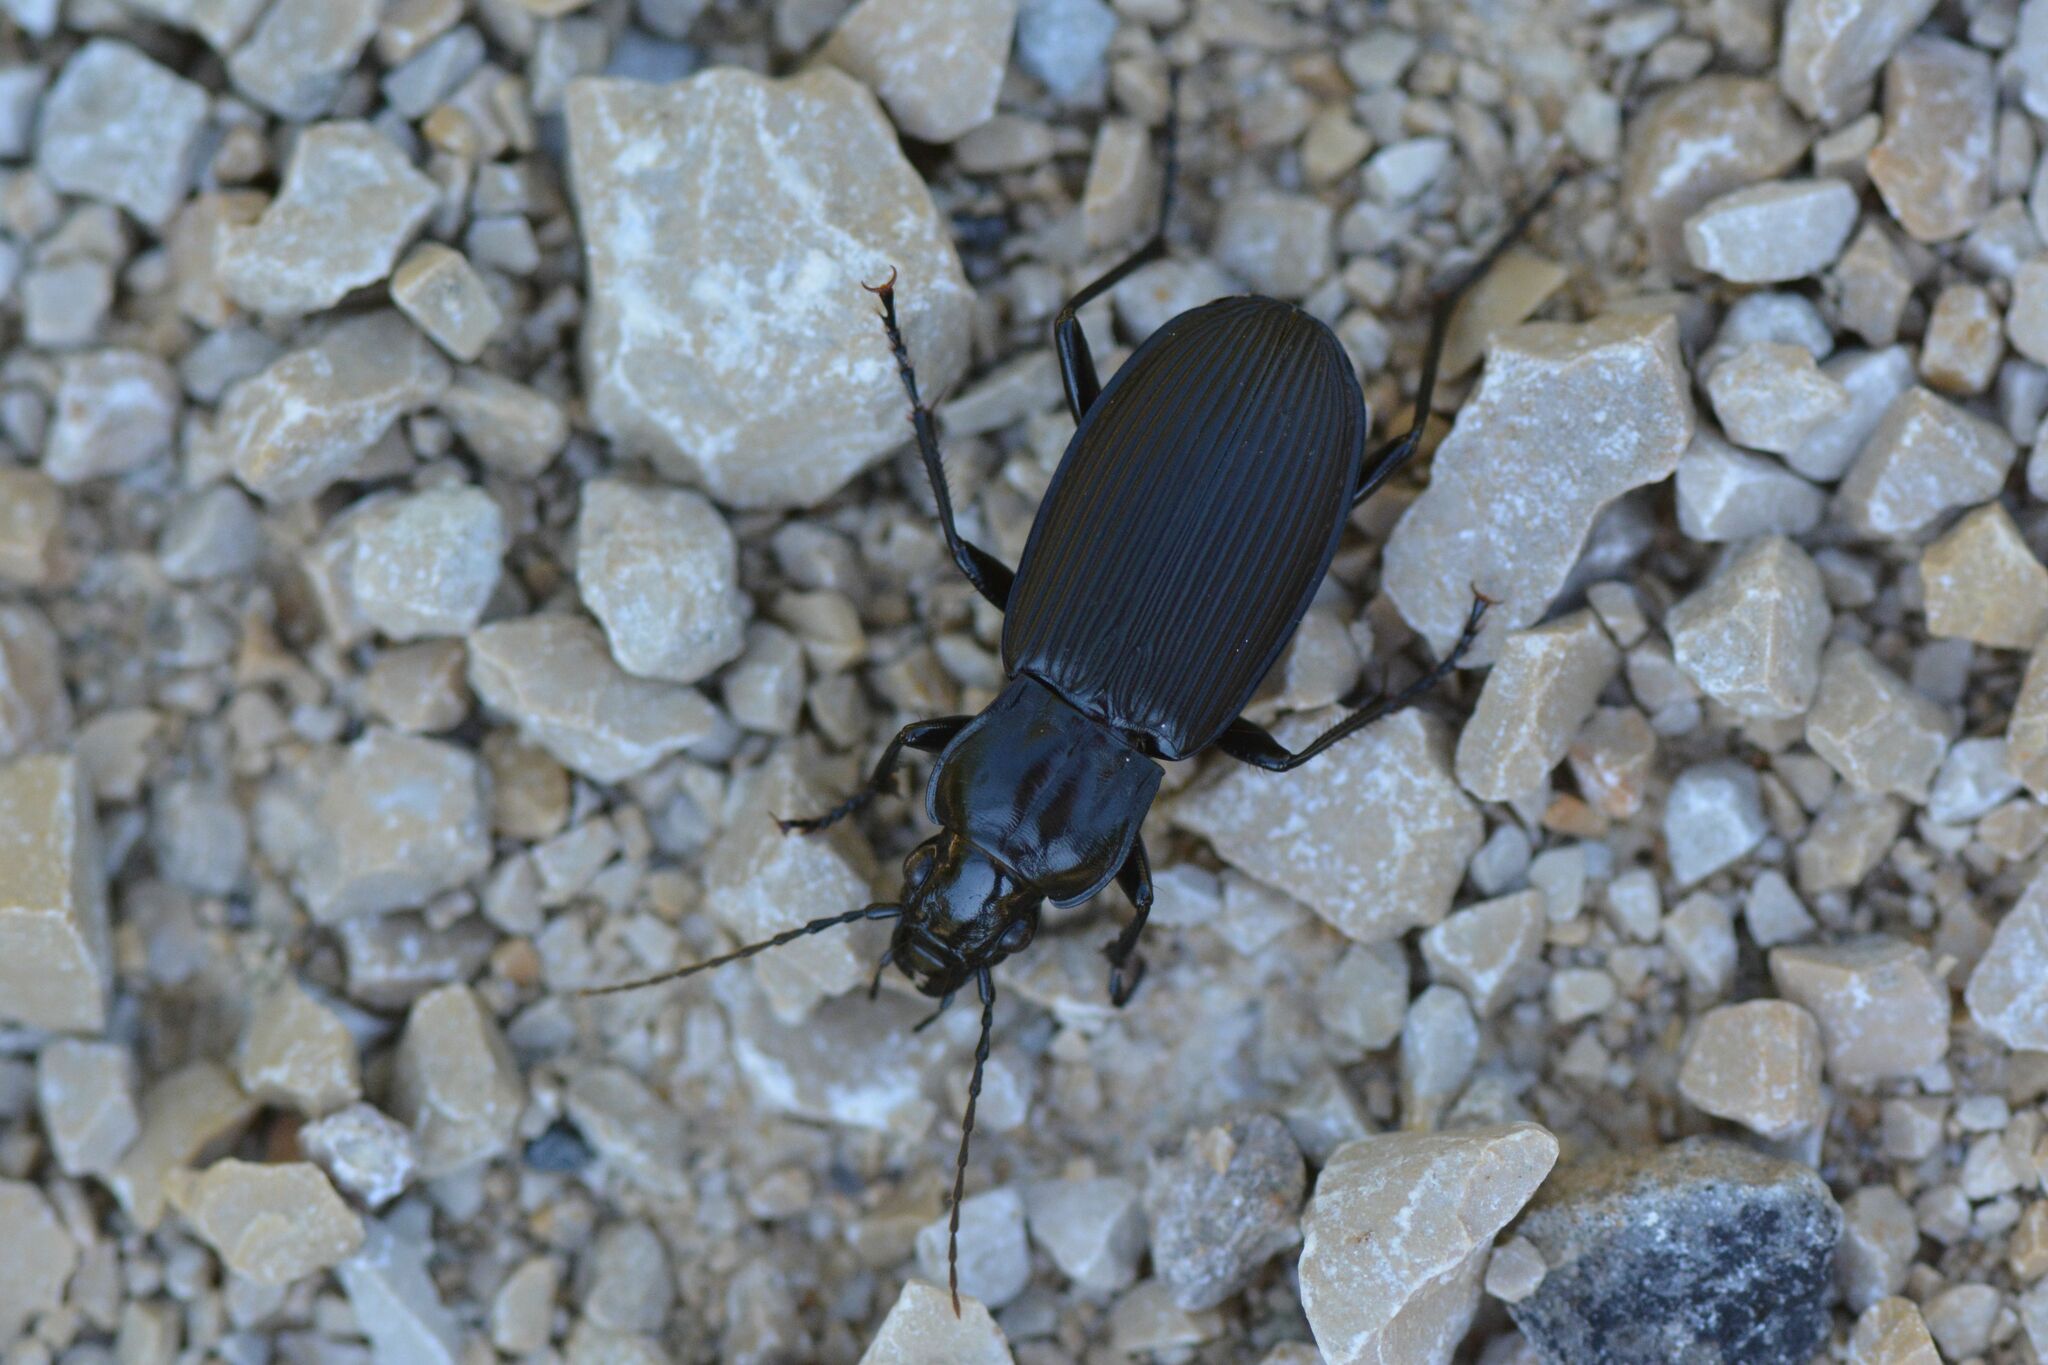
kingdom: Animalia
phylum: Arthropoda
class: Insecta
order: Coleoptera
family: Carabidae
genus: Pterostichus
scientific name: Pterostichus niger
